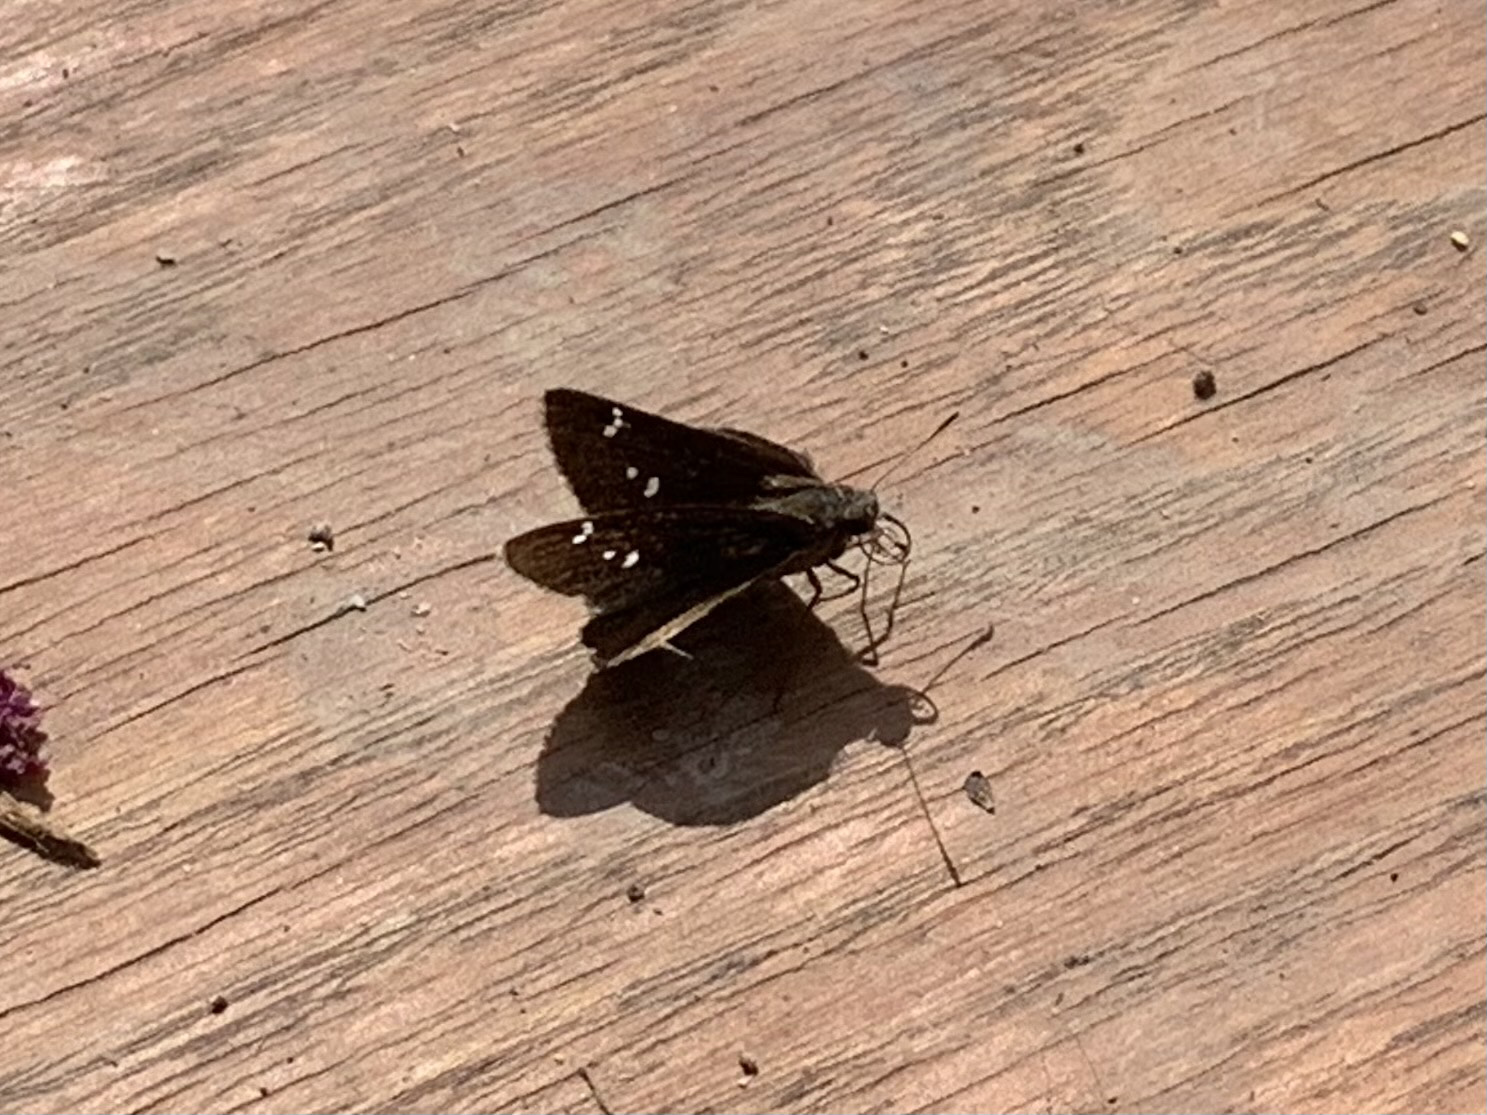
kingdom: Animalia
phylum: Arthropoda
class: Insecta
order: Lepidoptera
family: Hesperiidae
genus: Lerema
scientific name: Lerema accius
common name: Clouded skipper
